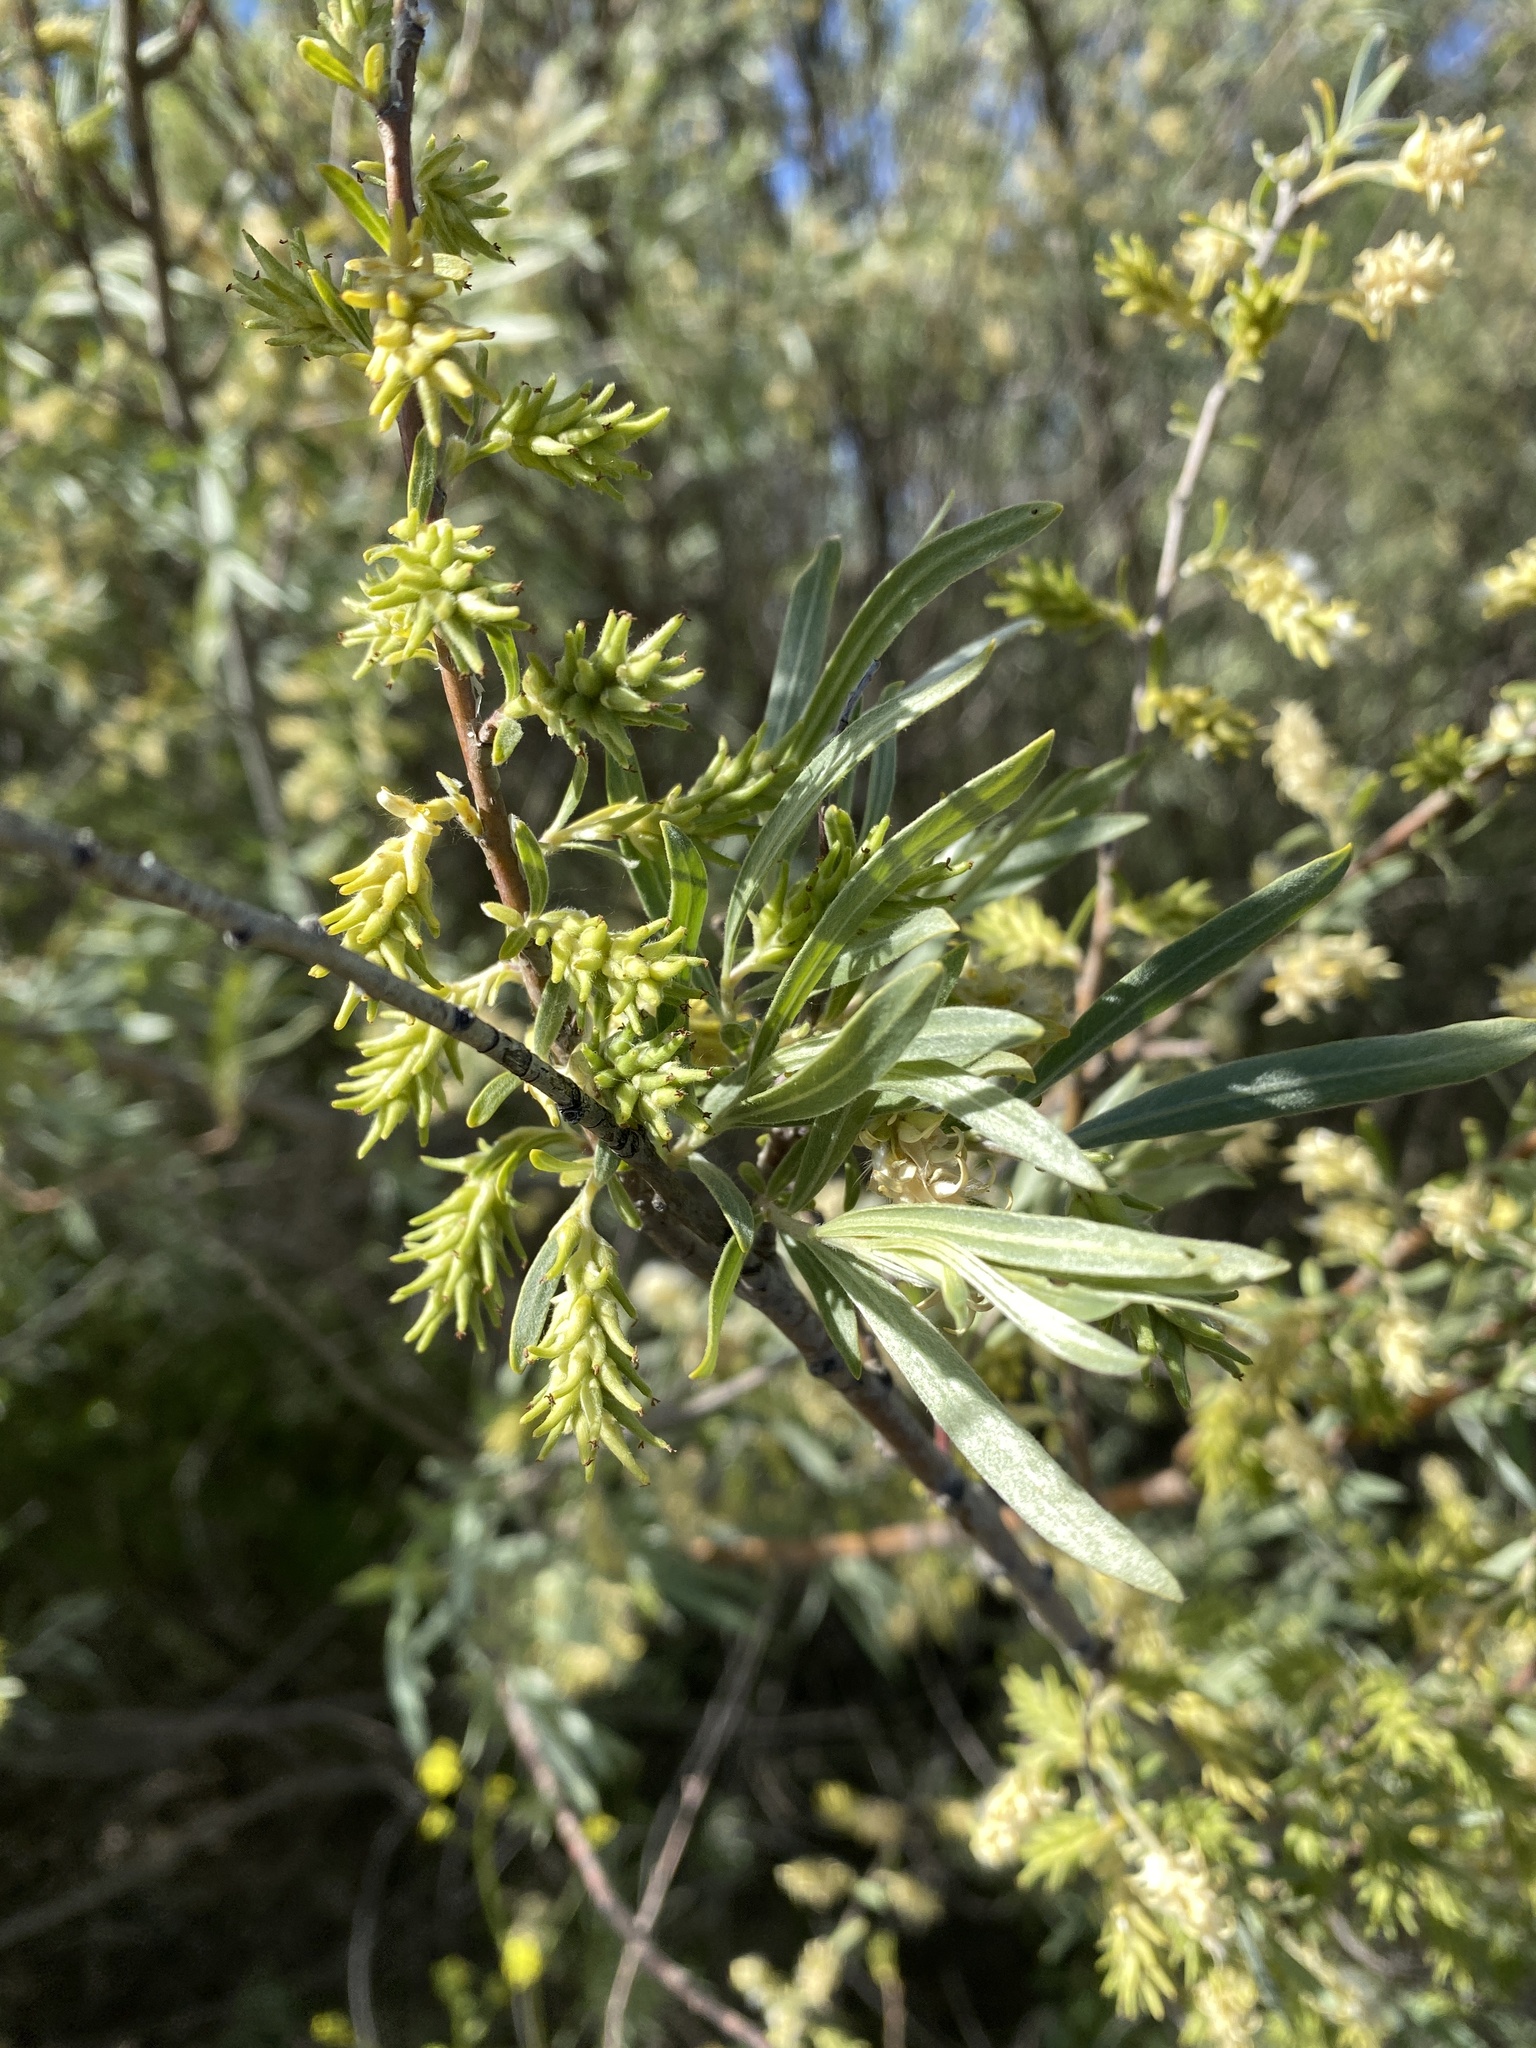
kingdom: Plantae
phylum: Tracheophyta
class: Magnoliopsida
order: Malpighiales
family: Salicaceae
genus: Salix
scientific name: Salix exigua
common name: Coyote willow
